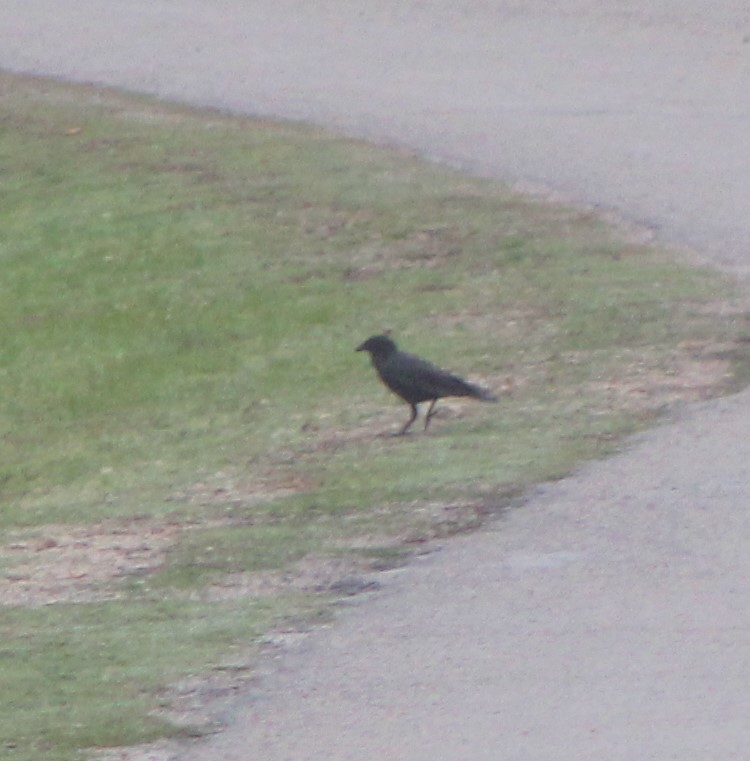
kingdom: Animalia
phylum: Chordata
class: Aves
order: Passeriformes
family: Corvidae
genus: Corvus
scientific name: Corvus brachyrhynchos
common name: American crow
